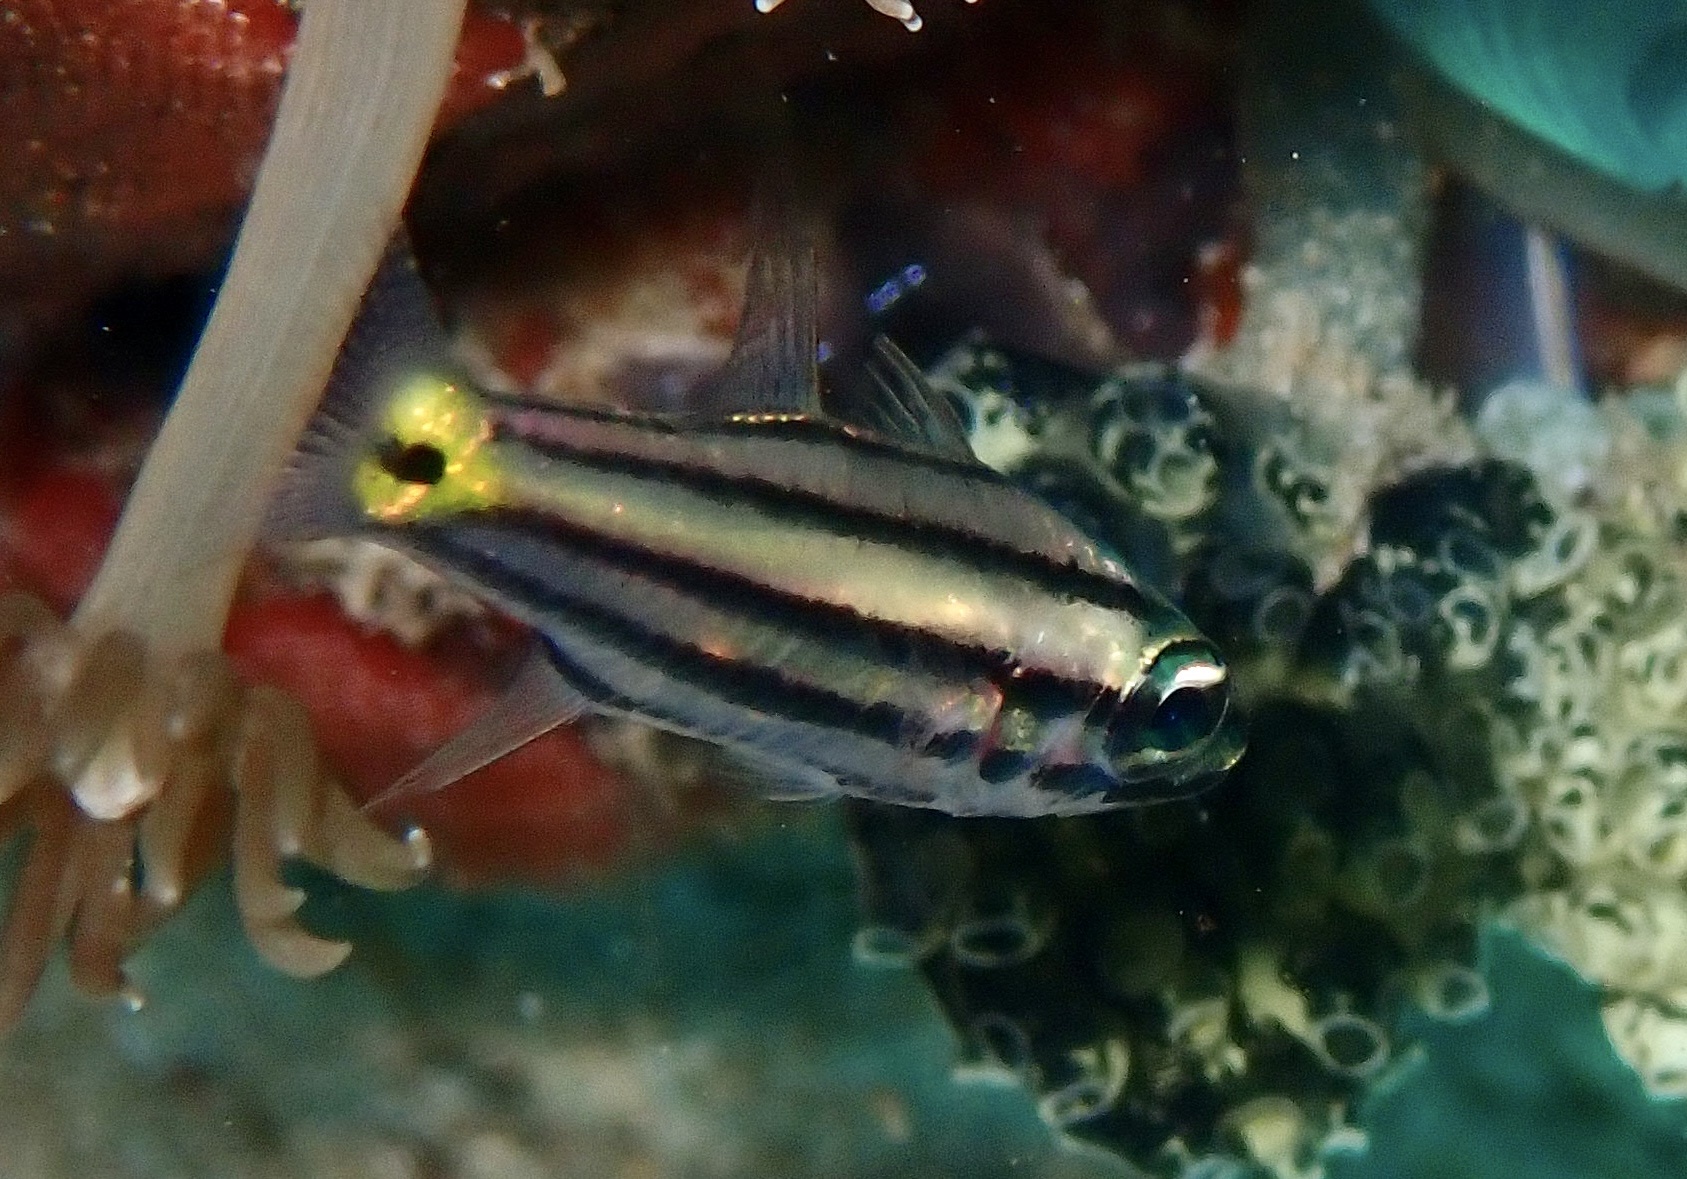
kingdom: Animalia
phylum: Chordata
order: Perciformes
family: Apogonidae
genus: Cheilodipterus
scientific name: Cheilodipterus quinquelineatus
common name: Five-lined cardinalfish
